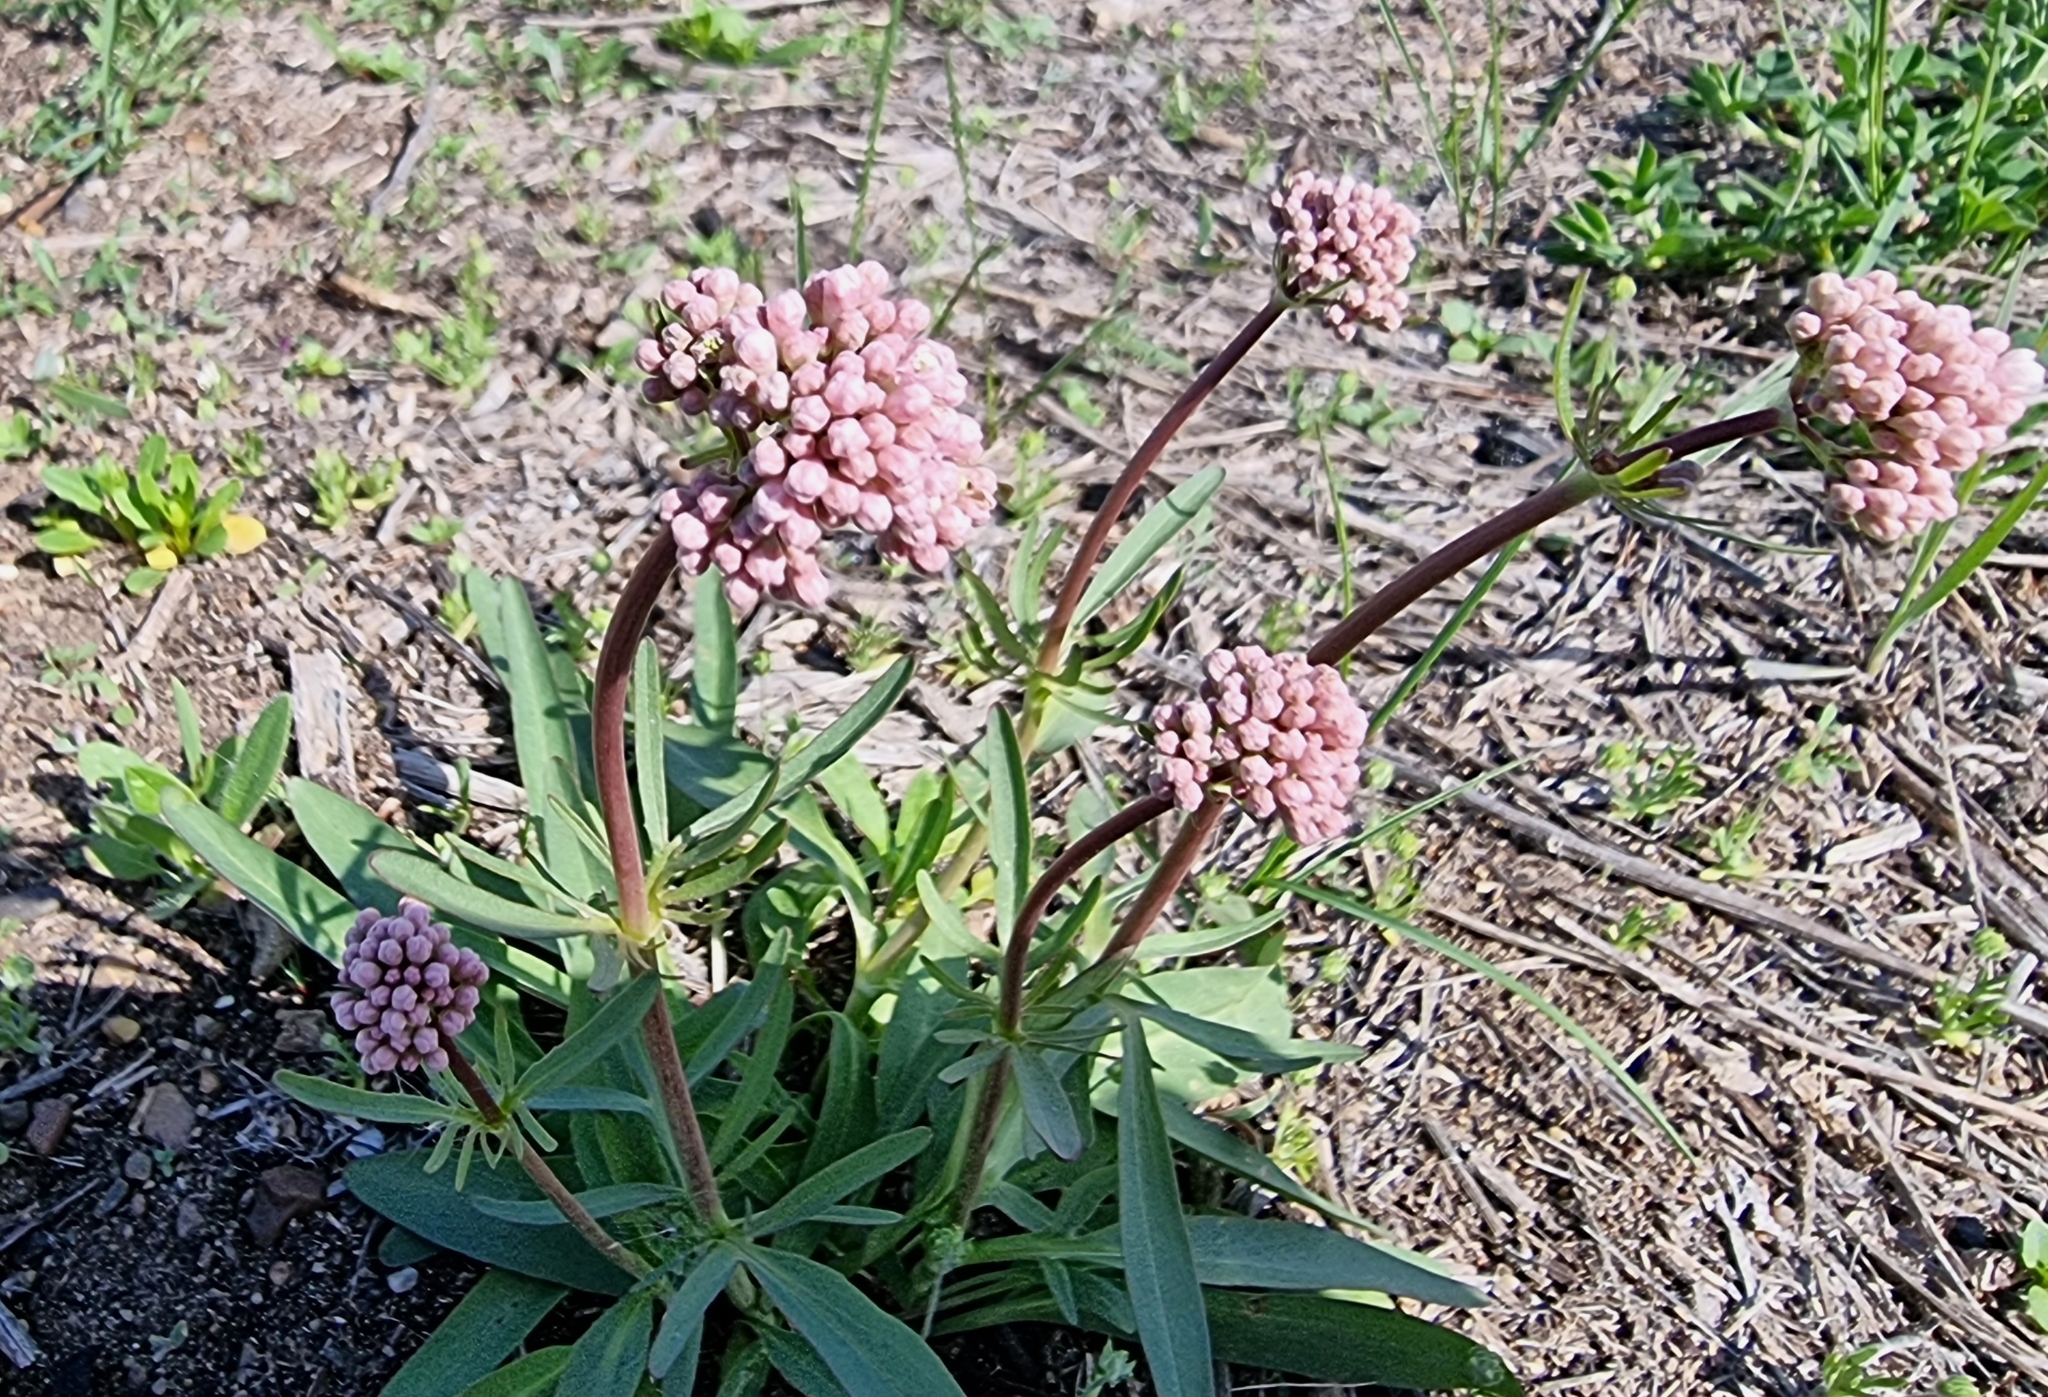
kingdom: Plantae
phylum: Tracheophyta
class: Magnoliopsida
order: Dipsacales
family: Caprifoliaceae
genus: Valeriana
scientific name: Valeriana tuberosa
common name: Tuberous valerian
